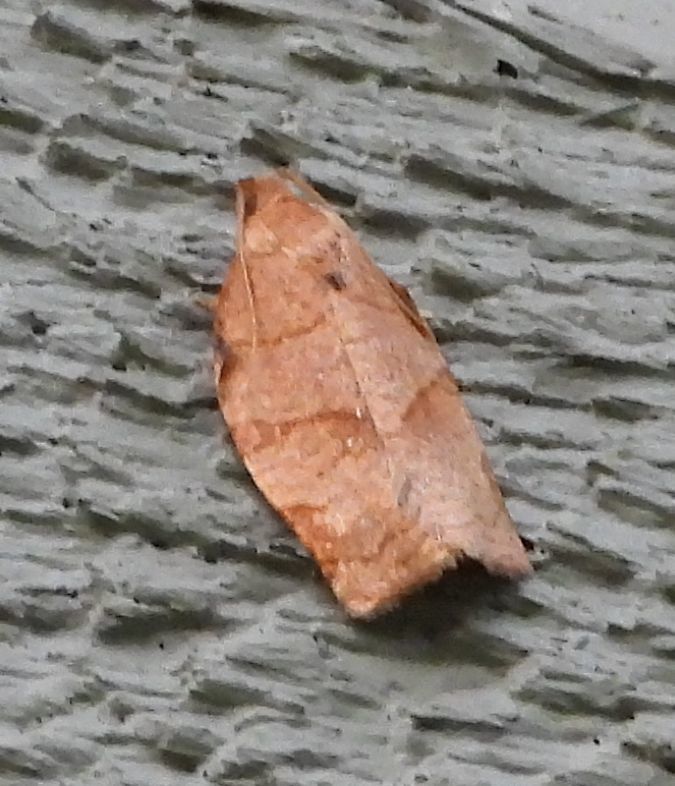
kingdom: Animalia
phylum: Arthropoda
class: Insecta
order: Lepidoptera
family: Tortricidae
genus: Choristoneura
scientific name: Choristoneura rosaceana
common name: Oblique-banded leafroller moth
